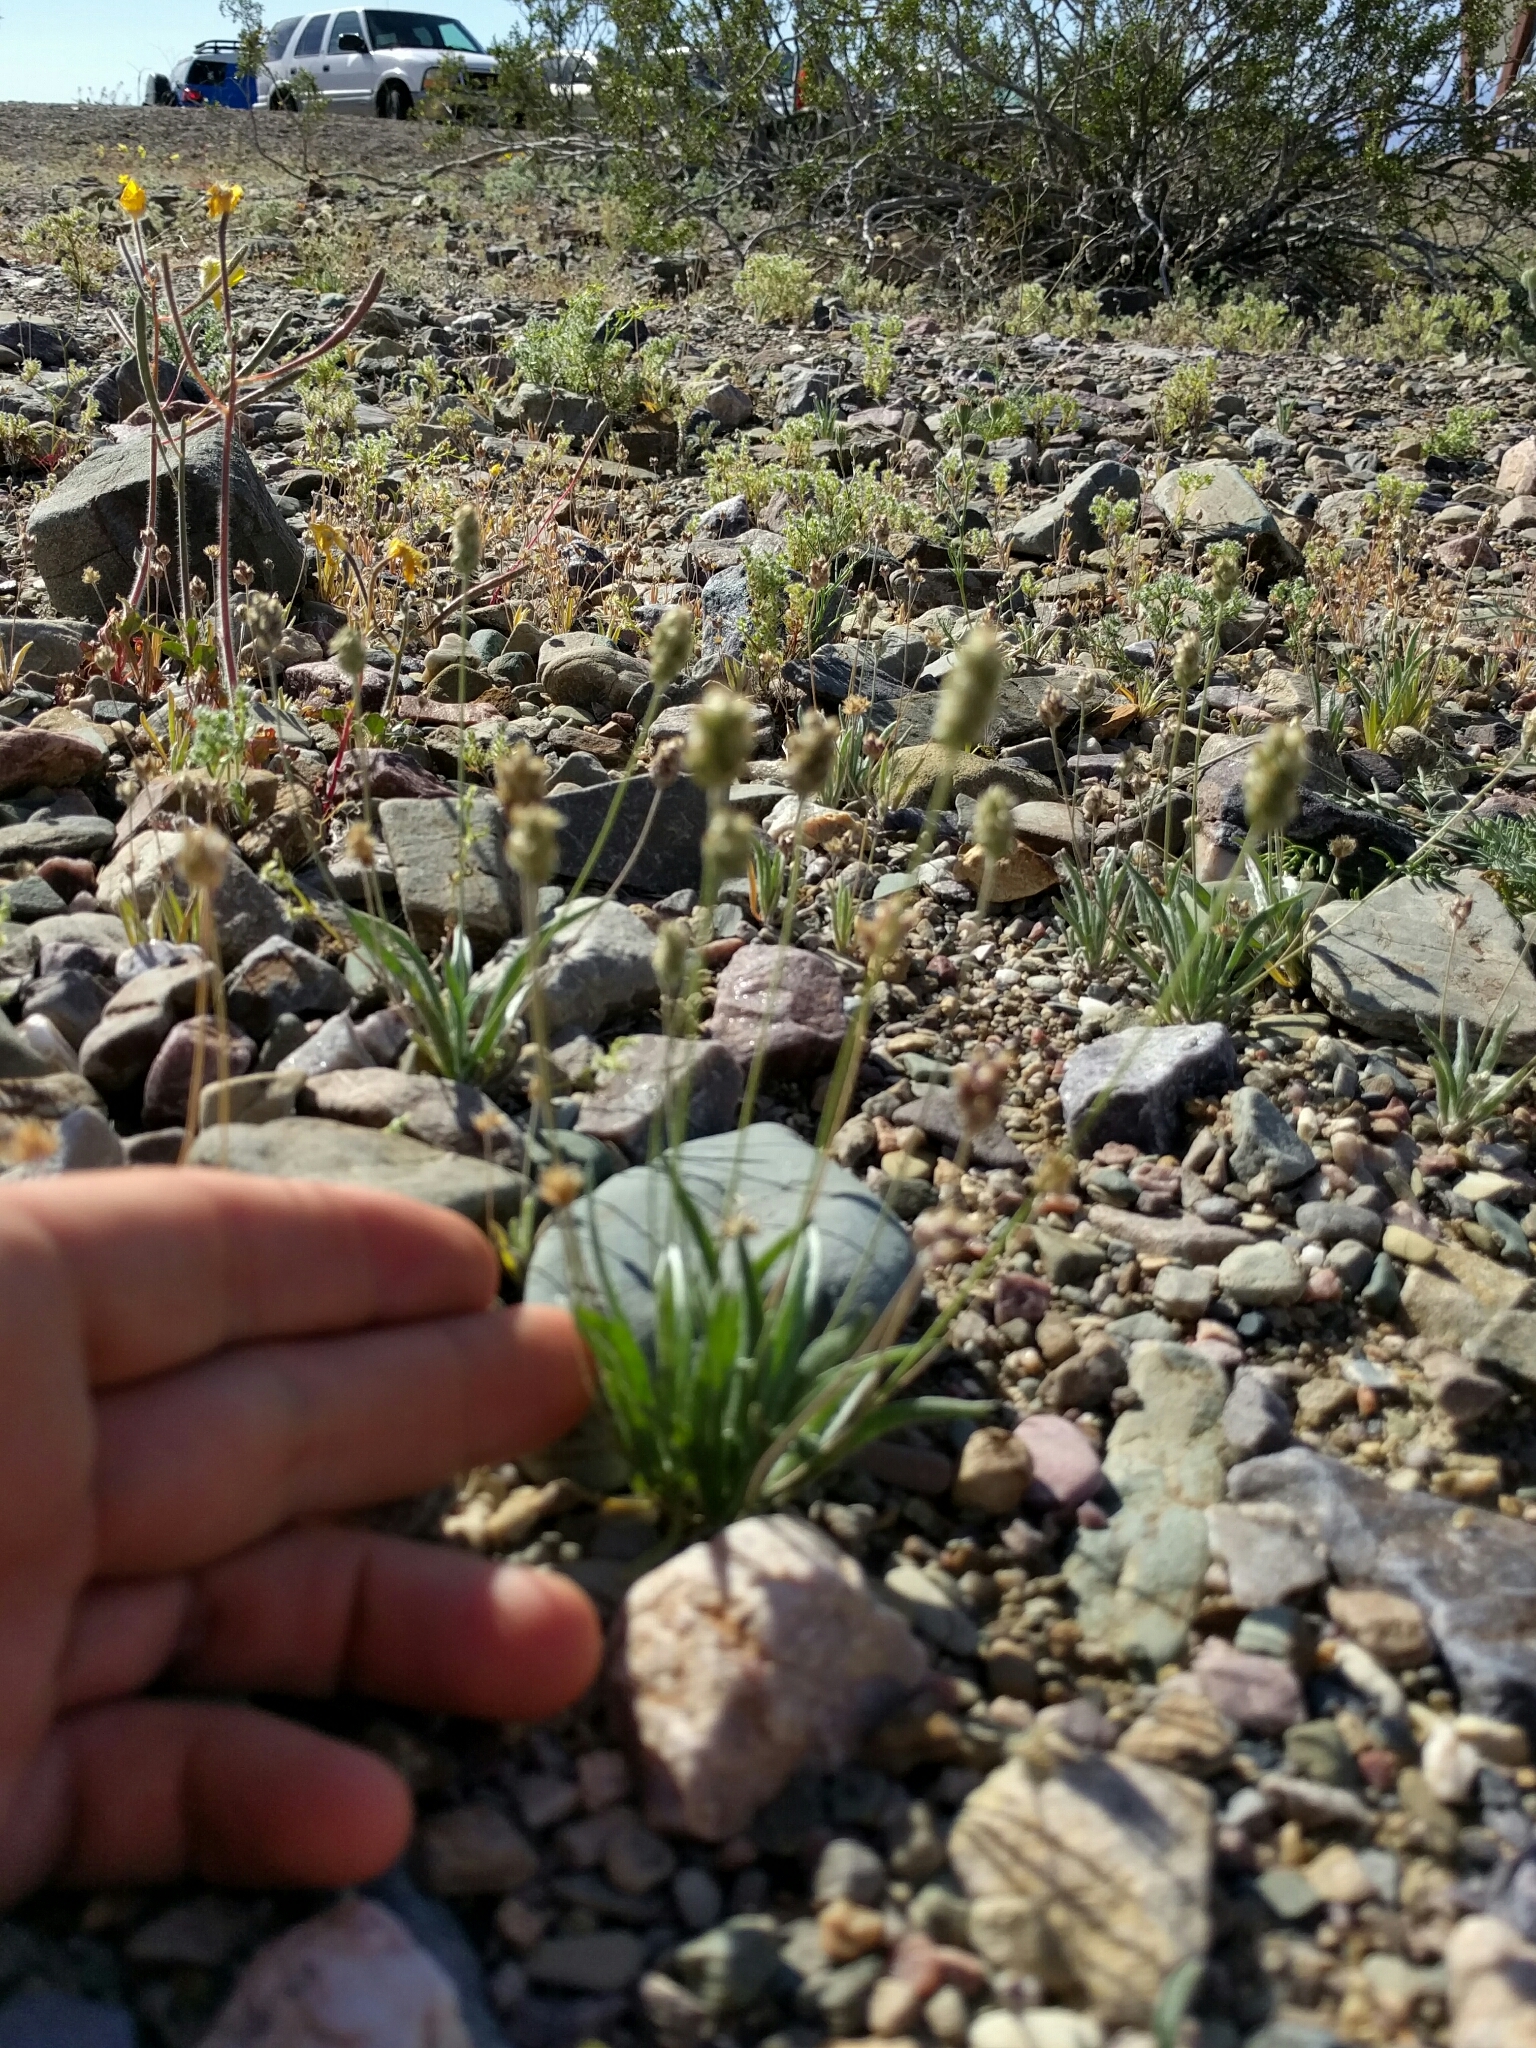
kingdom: Plantae
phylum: Tracheophyta
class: Magnoliopsida
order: Lamiales
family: Plantaginaceae
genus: Plantago
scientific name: Plantago ovata
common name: Blond plantain
